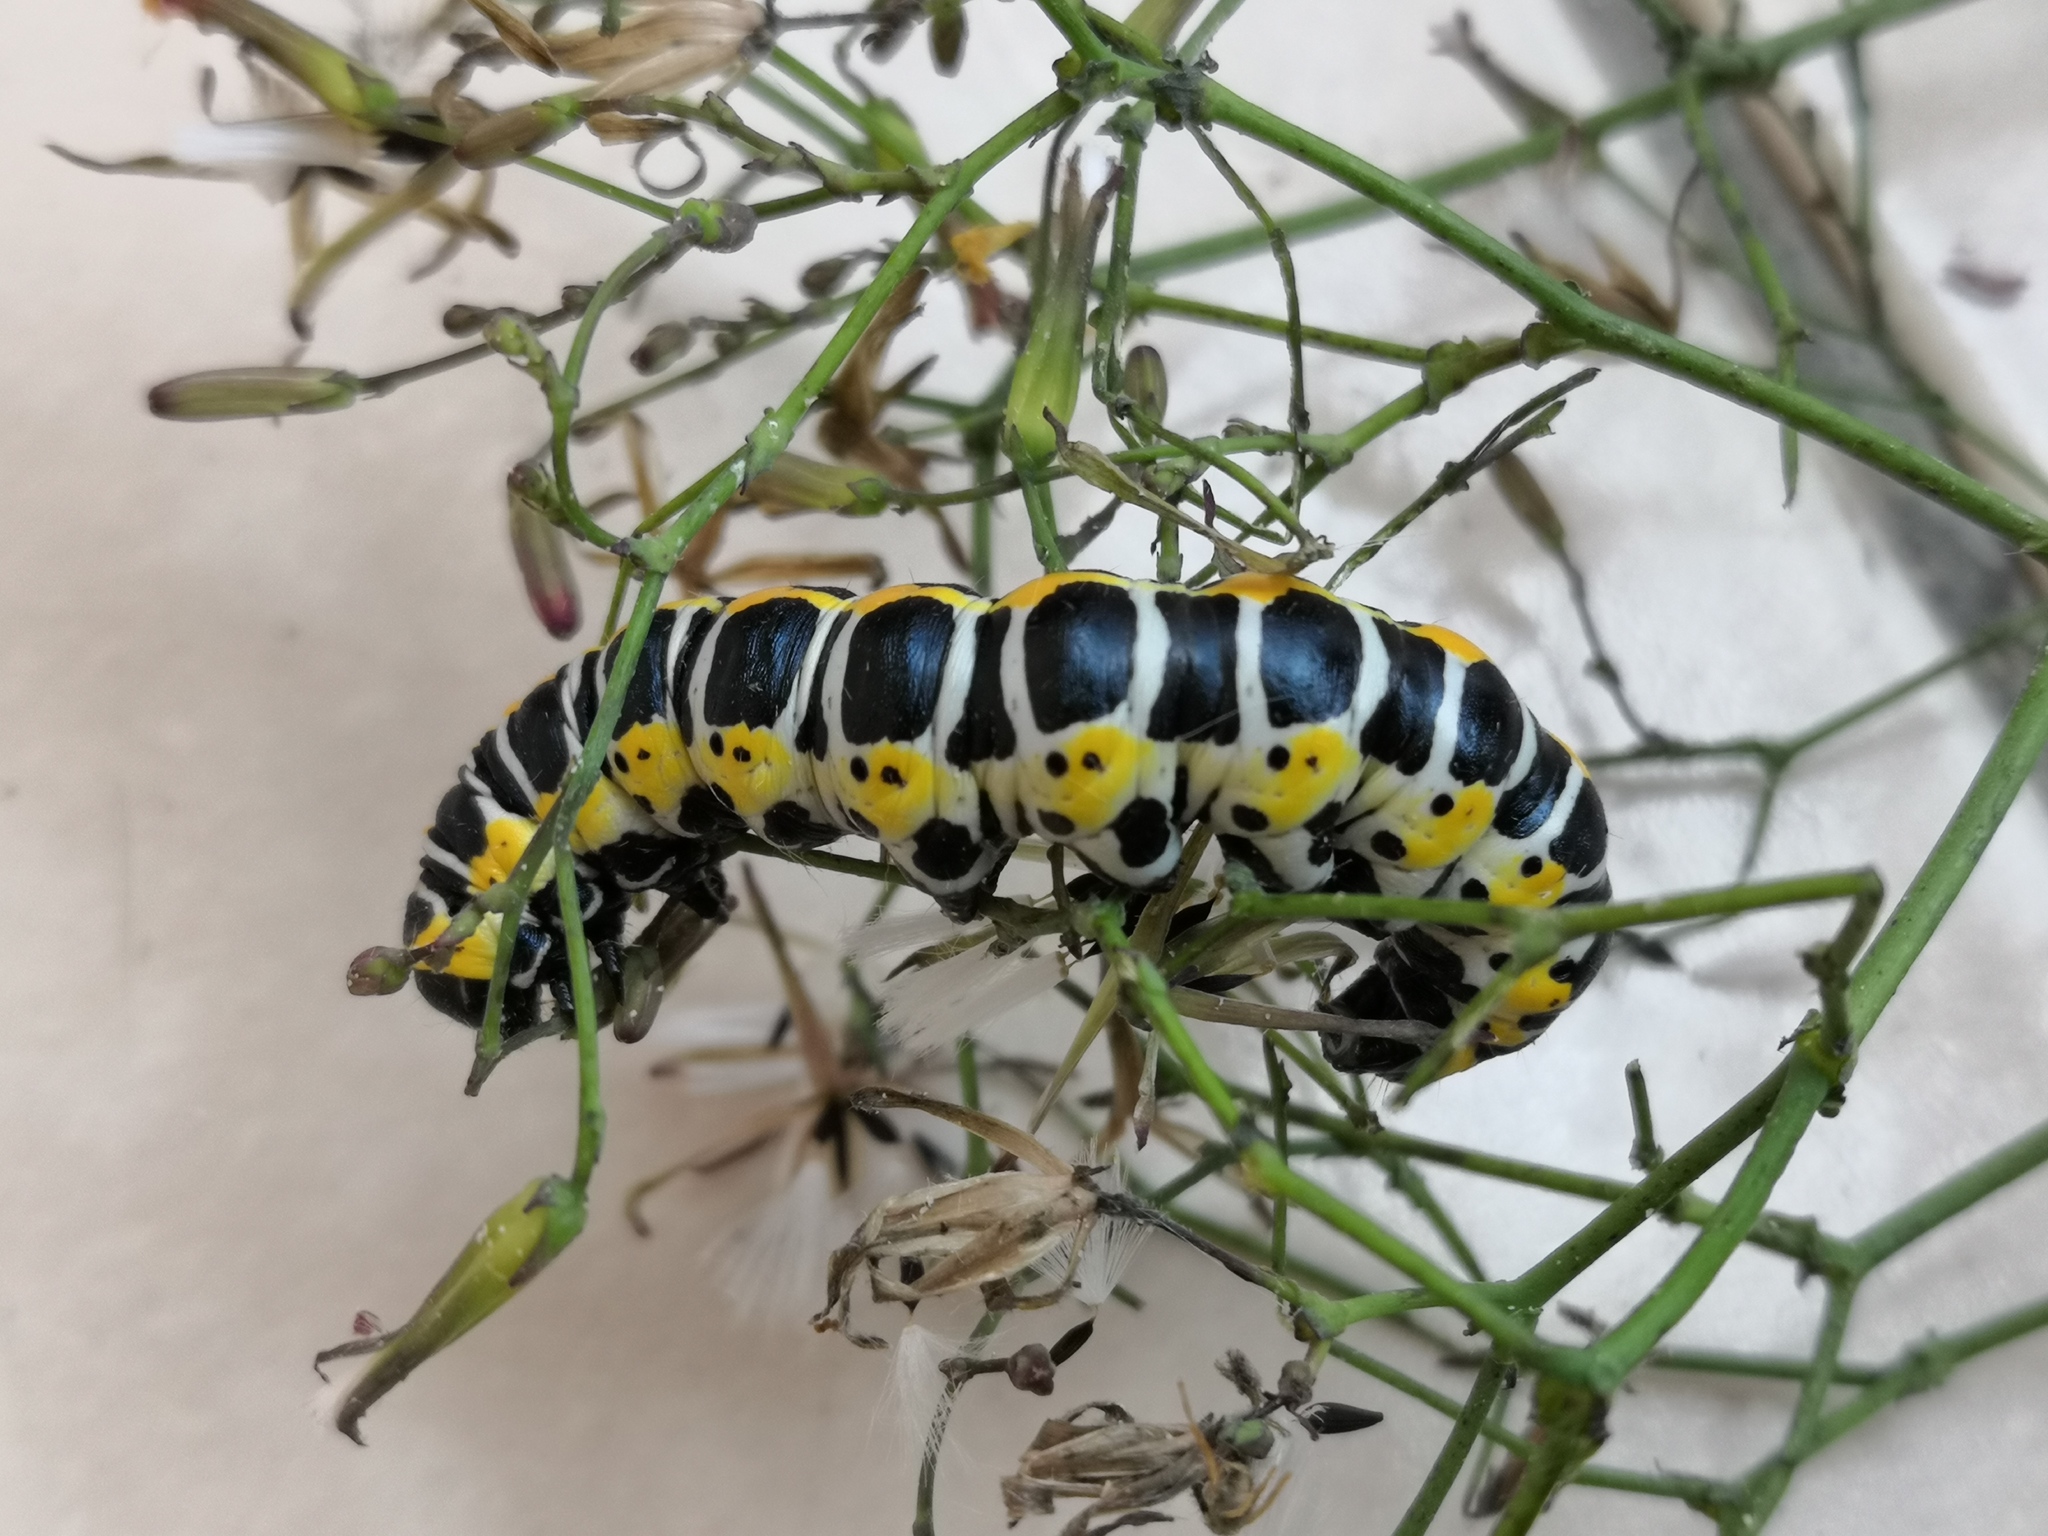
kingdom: Animalia
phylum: Arthropoda
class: Insecta
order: Lepidoptera
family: Noctuidae
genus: Cucullia
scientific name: Cucullia lactucae
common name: Lettuce shark
